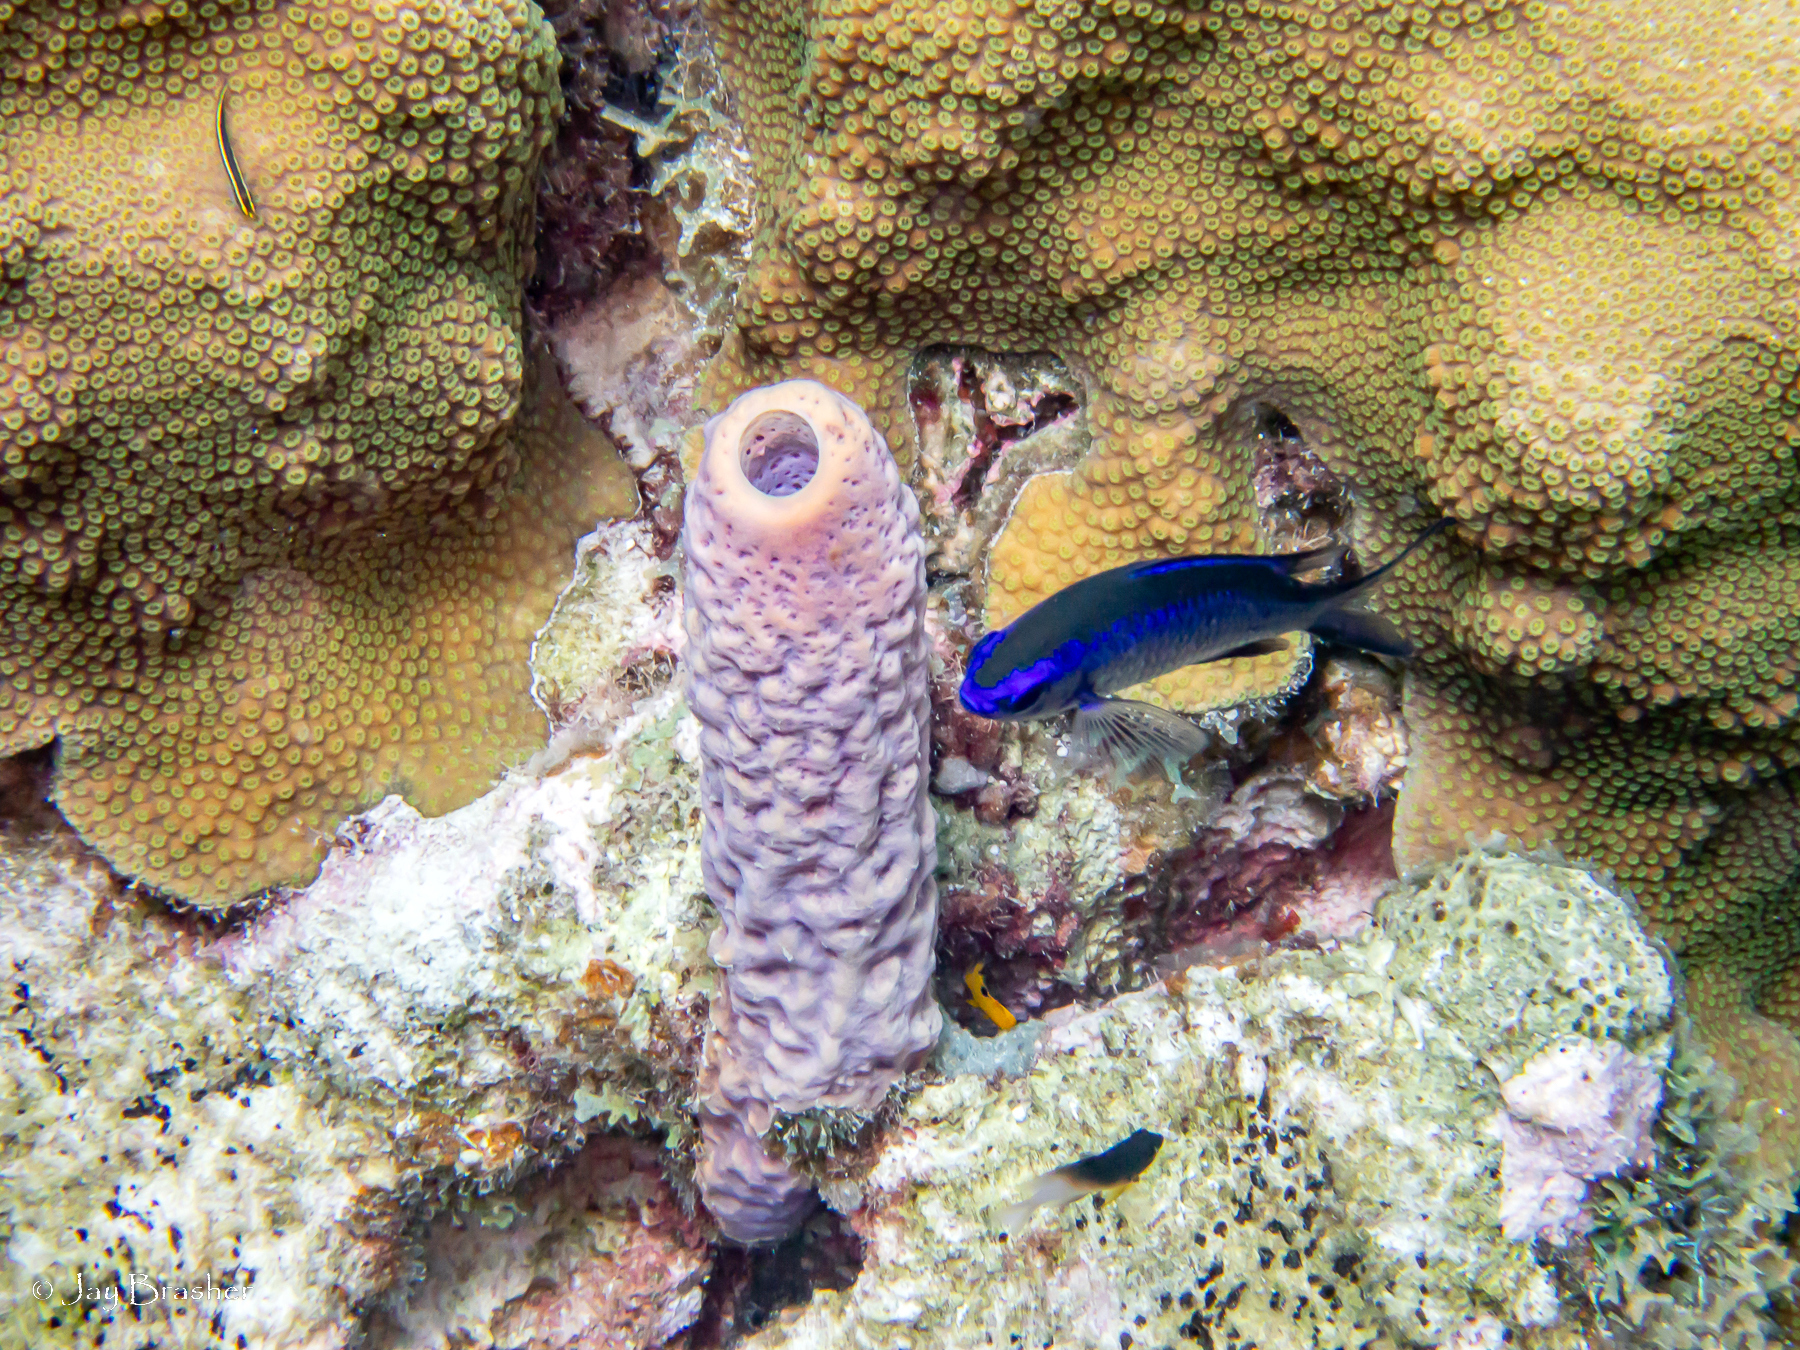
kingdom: Animalia
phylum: Porifera
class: Demospongiae
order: Verongiida
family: Aplysinidae
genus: Aplysina
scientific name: Aplysina archeri
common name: Stove-pipe sponge
